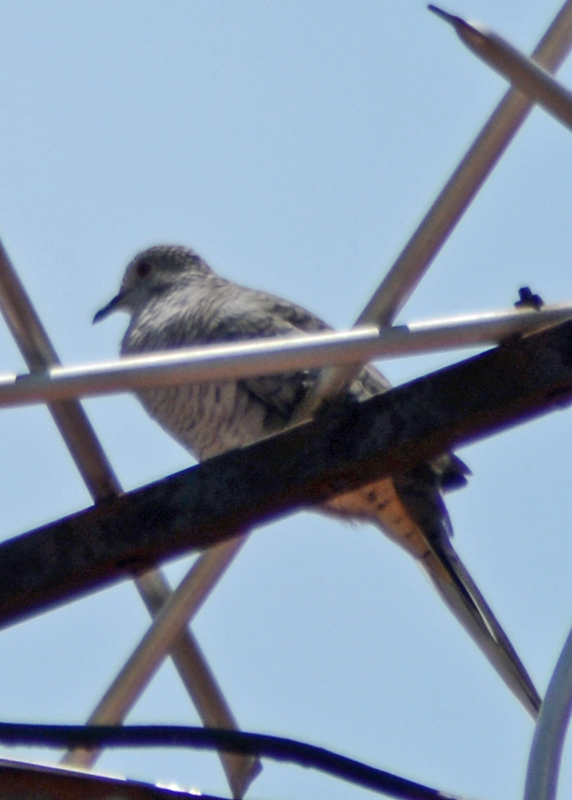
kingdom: Animalia
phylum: Chordata
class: Aves
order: Columbiformes
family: Columbidae
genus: Columbina
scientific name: Columbina inca
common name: Inca dove
